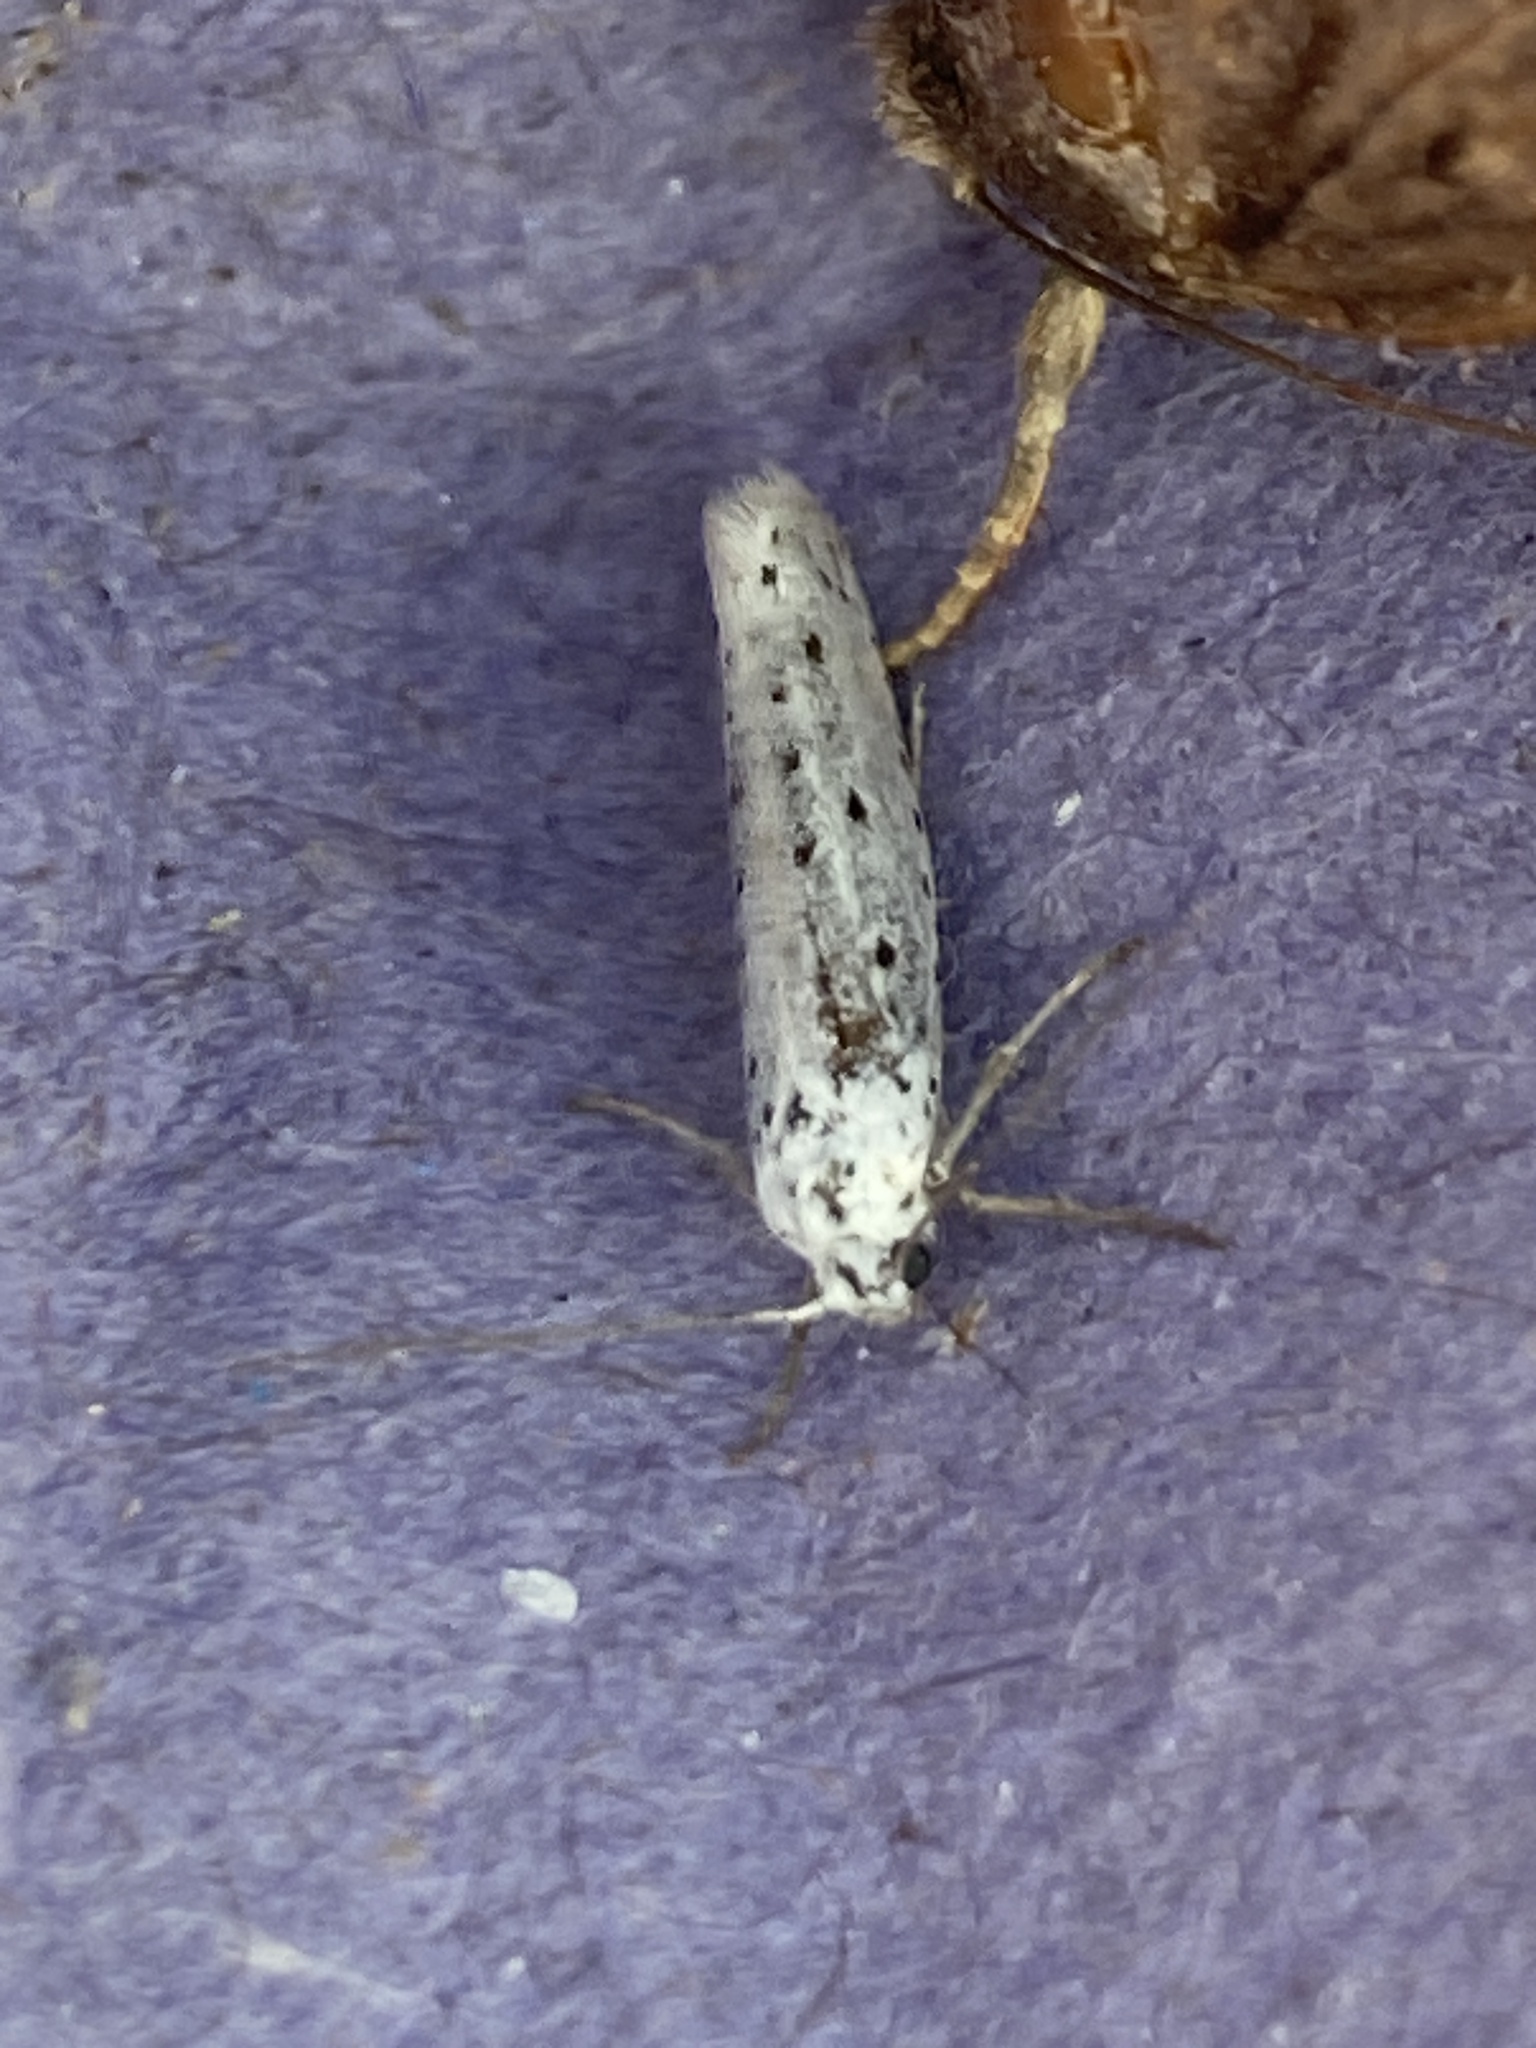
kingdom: Animalia
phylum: Arthropoda
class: Insecta
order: Lepidoptera
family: Yponomeutidae
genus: Yponomeuta
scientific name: Yponomeuta
